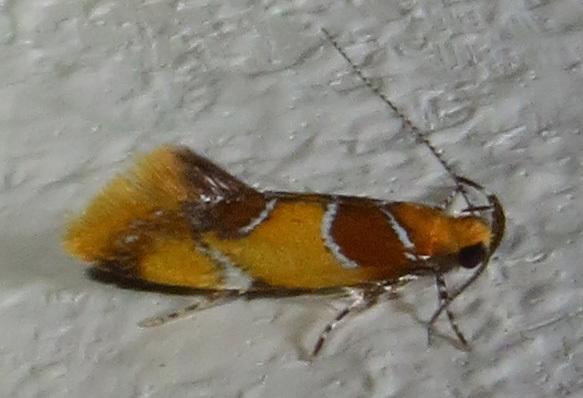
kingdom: Animalia
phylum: Arthropoda
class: Insecta
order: Lepidoptera
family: Oecophoridae
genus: Callima
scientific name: Callima argenticinctella
